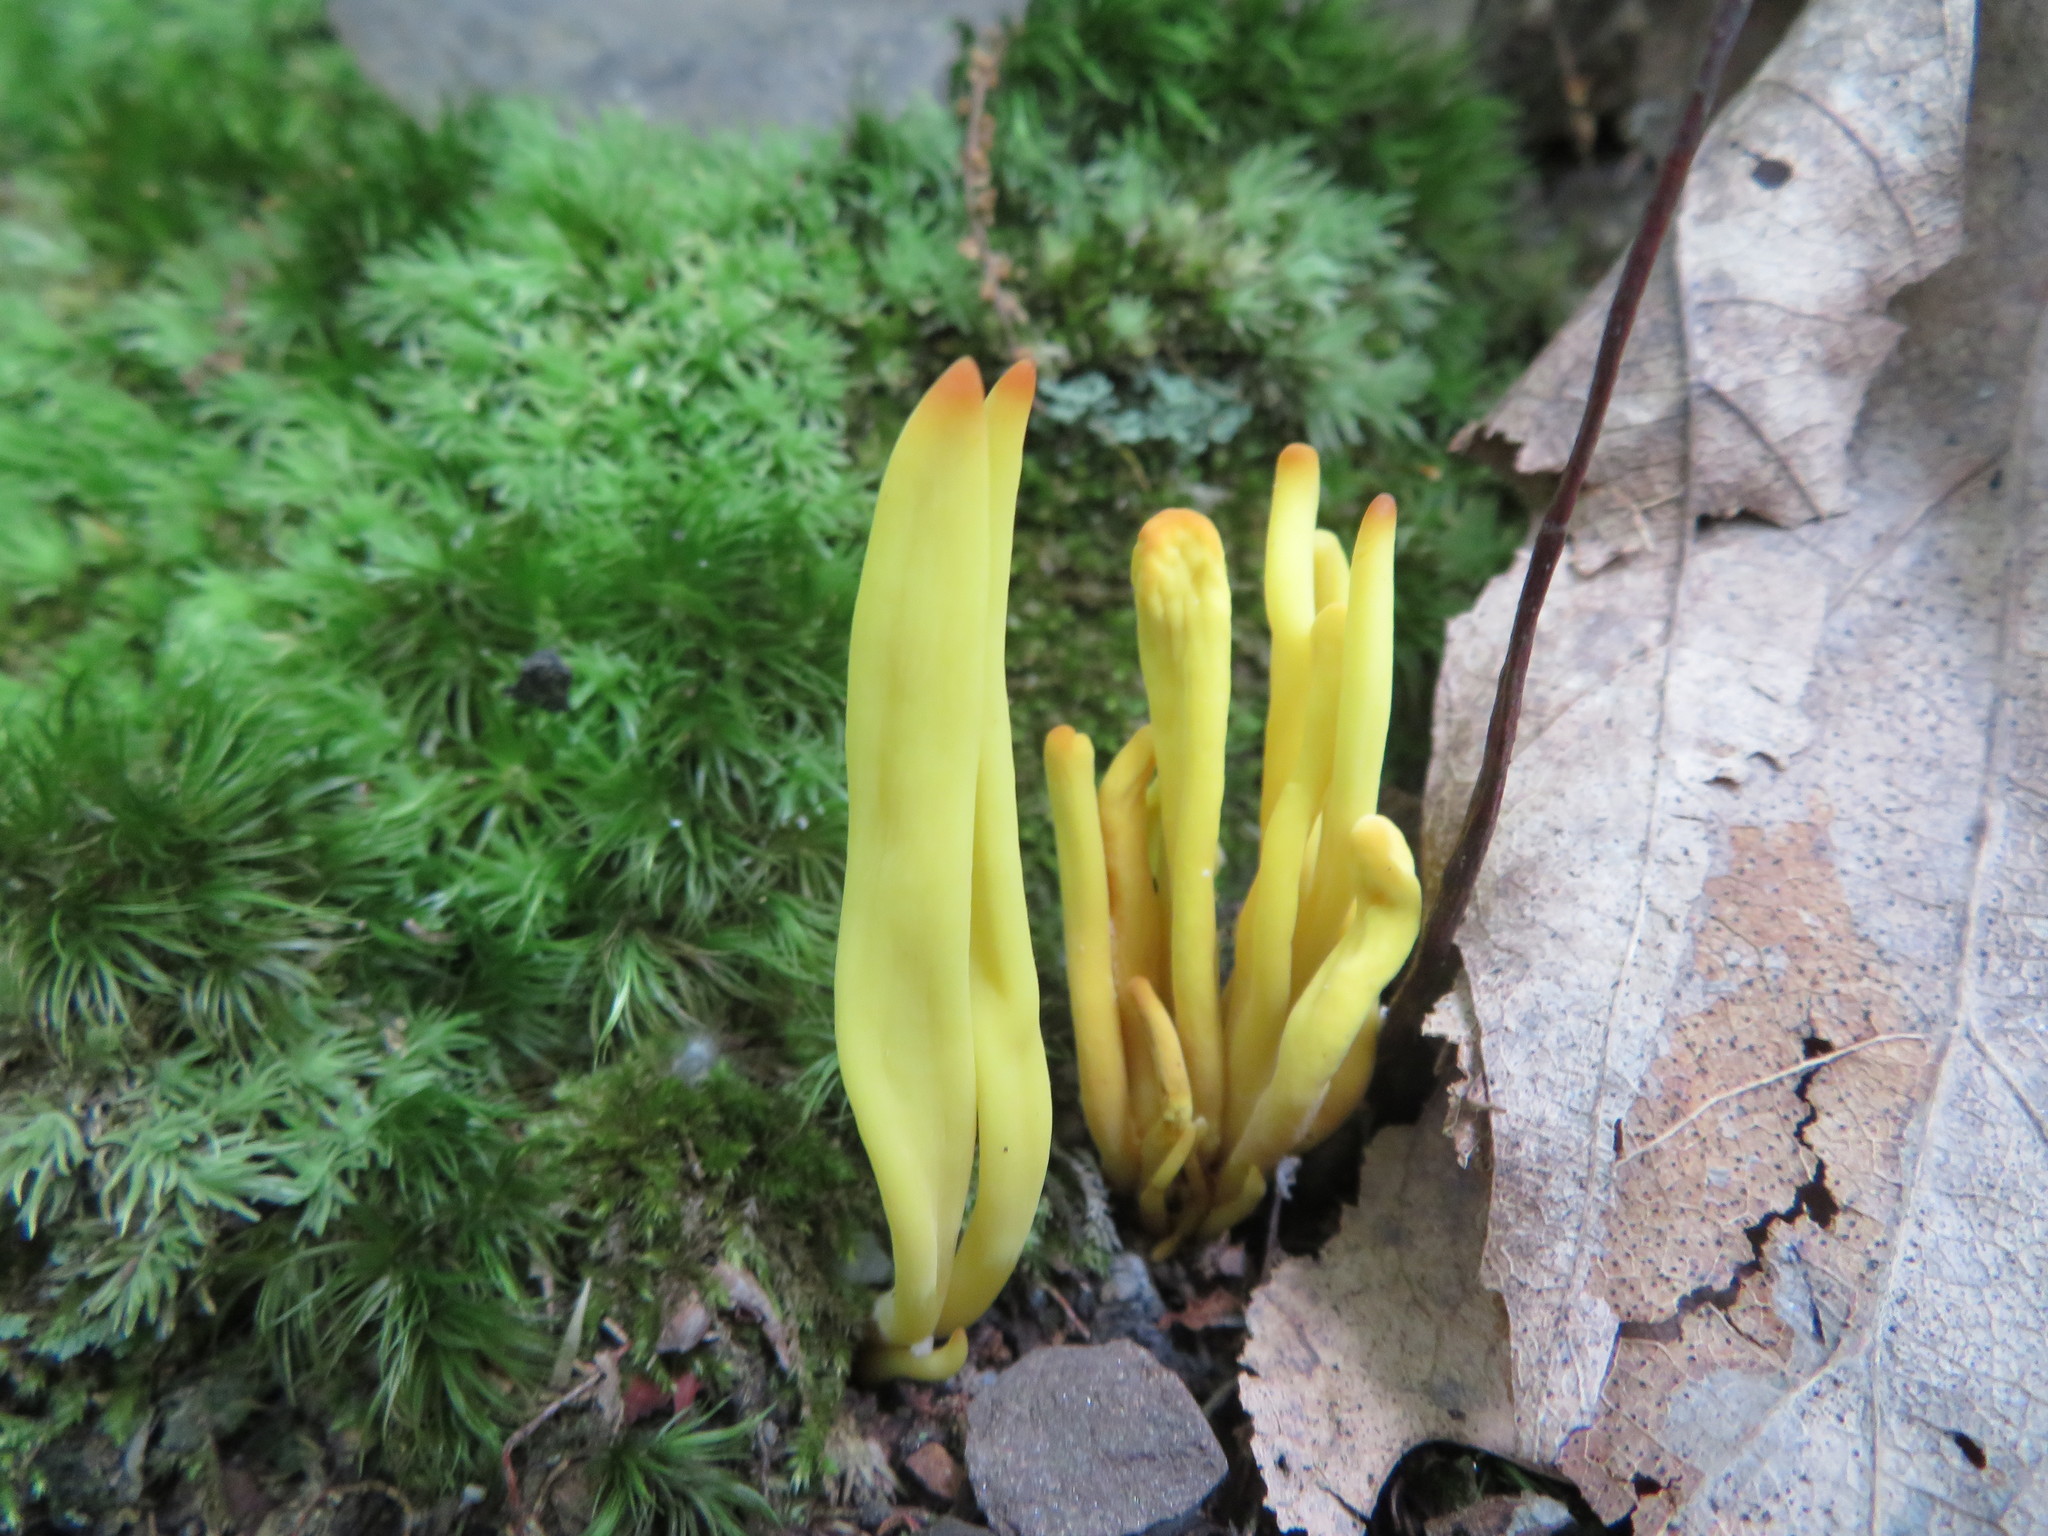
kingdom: Fungi
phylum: Basidiomycota
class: Agaricomycetes
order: Agaricales
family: Clavariaceae
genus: Clavulinopsis
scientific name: Clavulinopsis fusiformis
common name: Golden spindles
